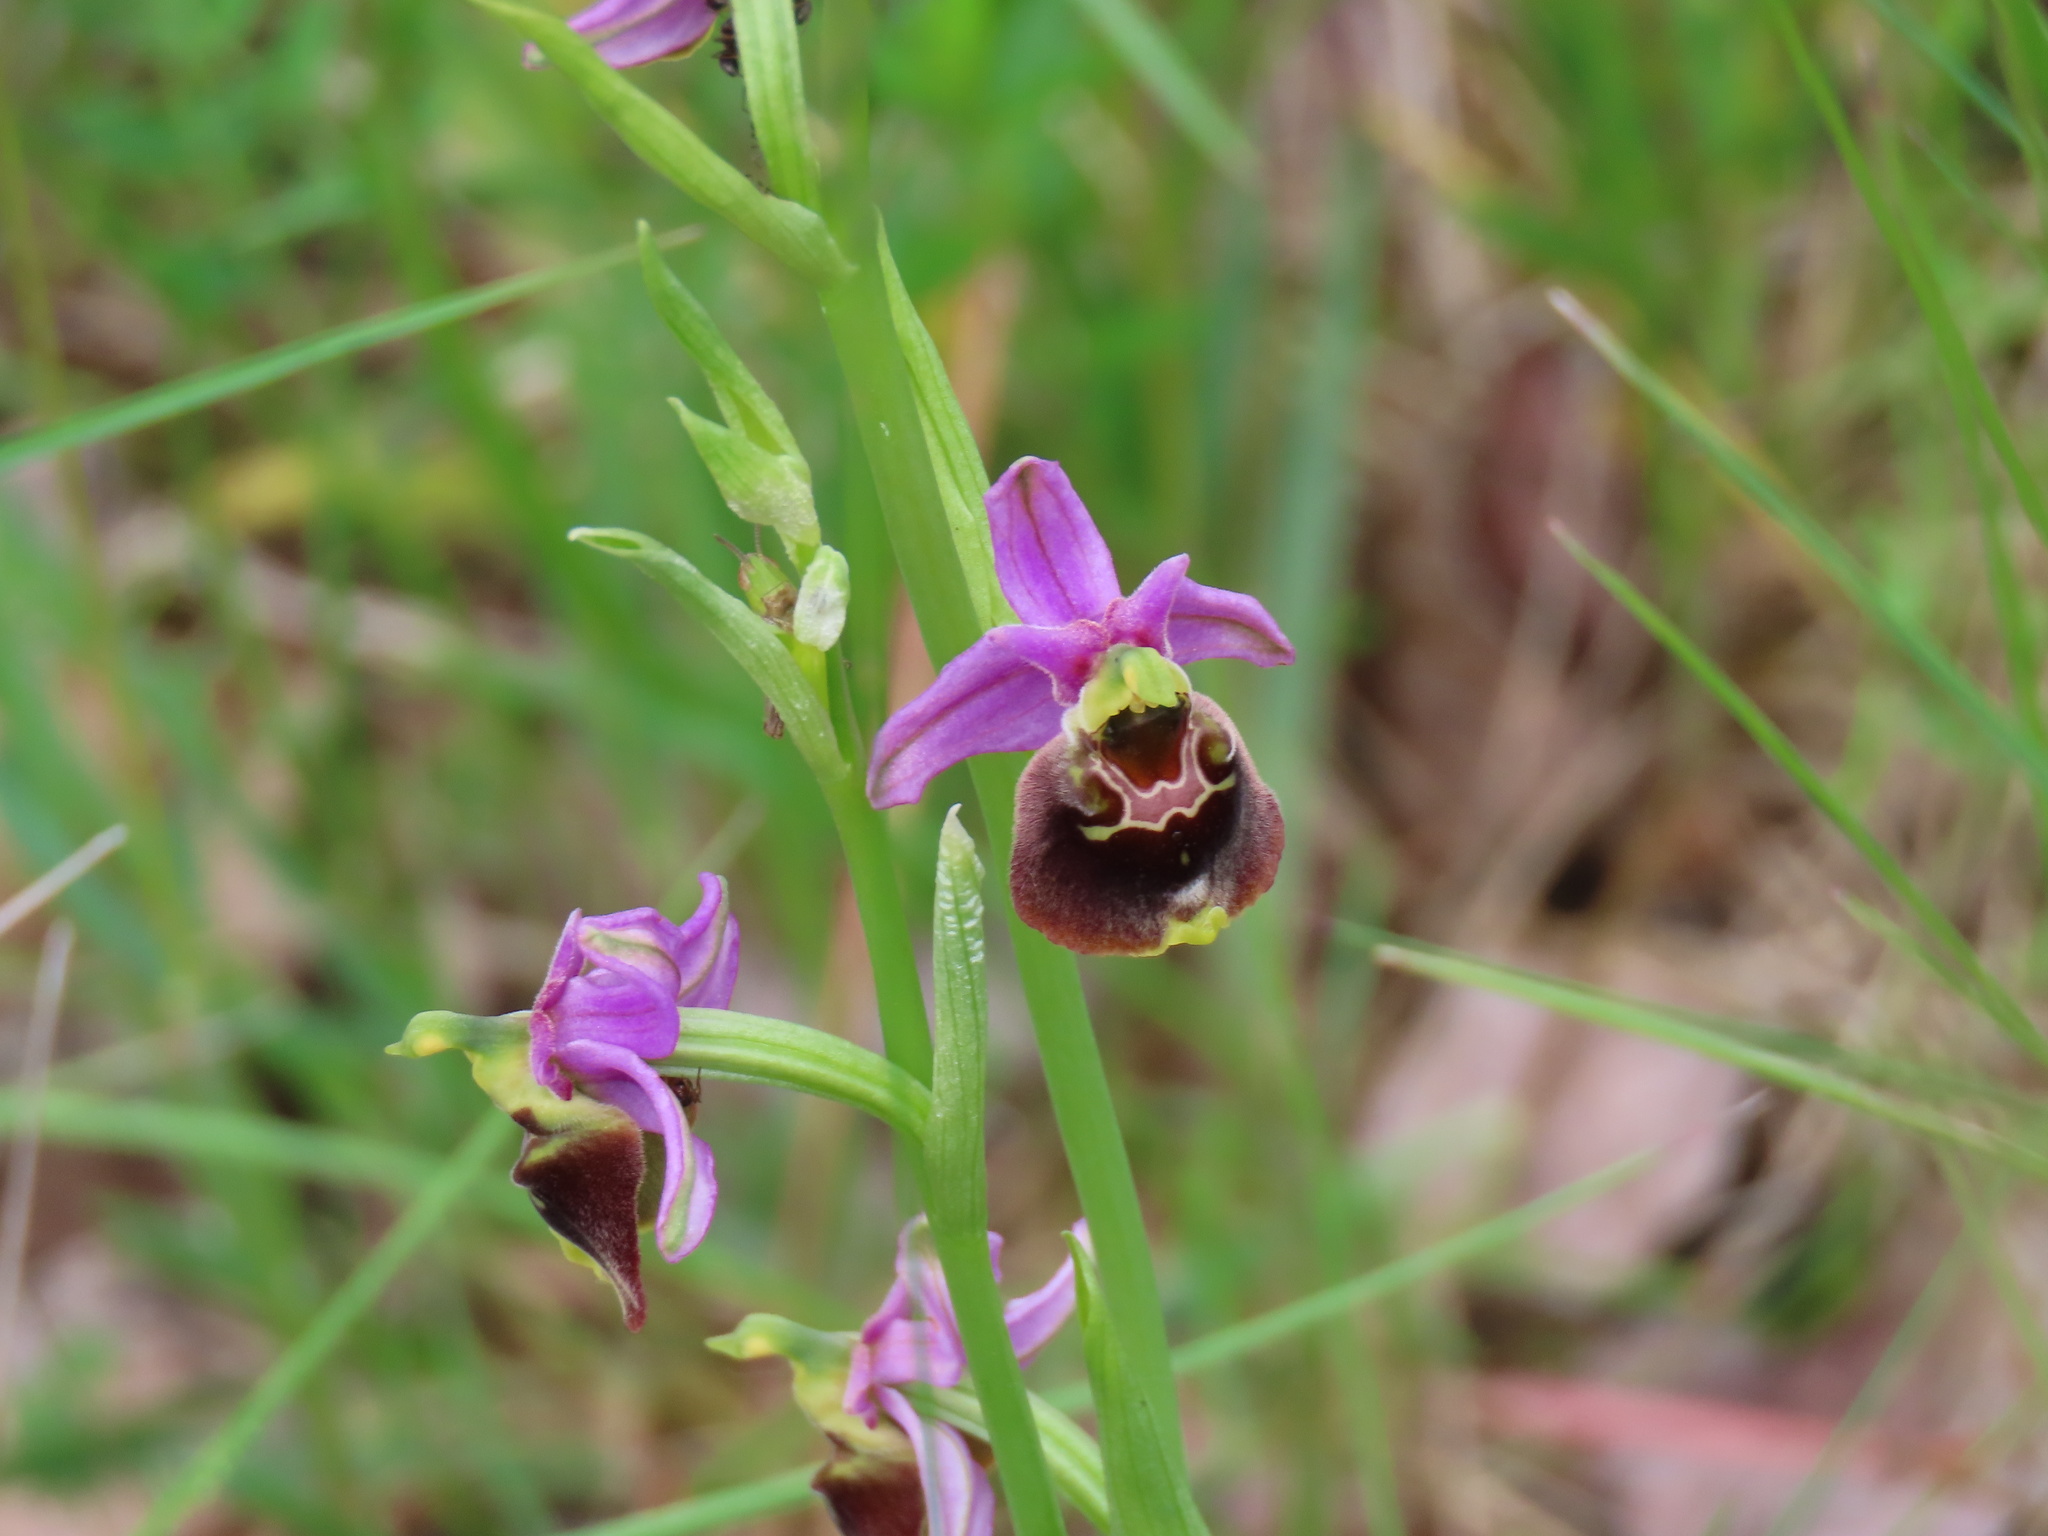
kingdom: Plantae
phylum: Tracheophyta
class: Liliopsida
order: Asparagales
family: Orchidaceae
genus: Ophrys
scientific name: Ophrys holosericea
